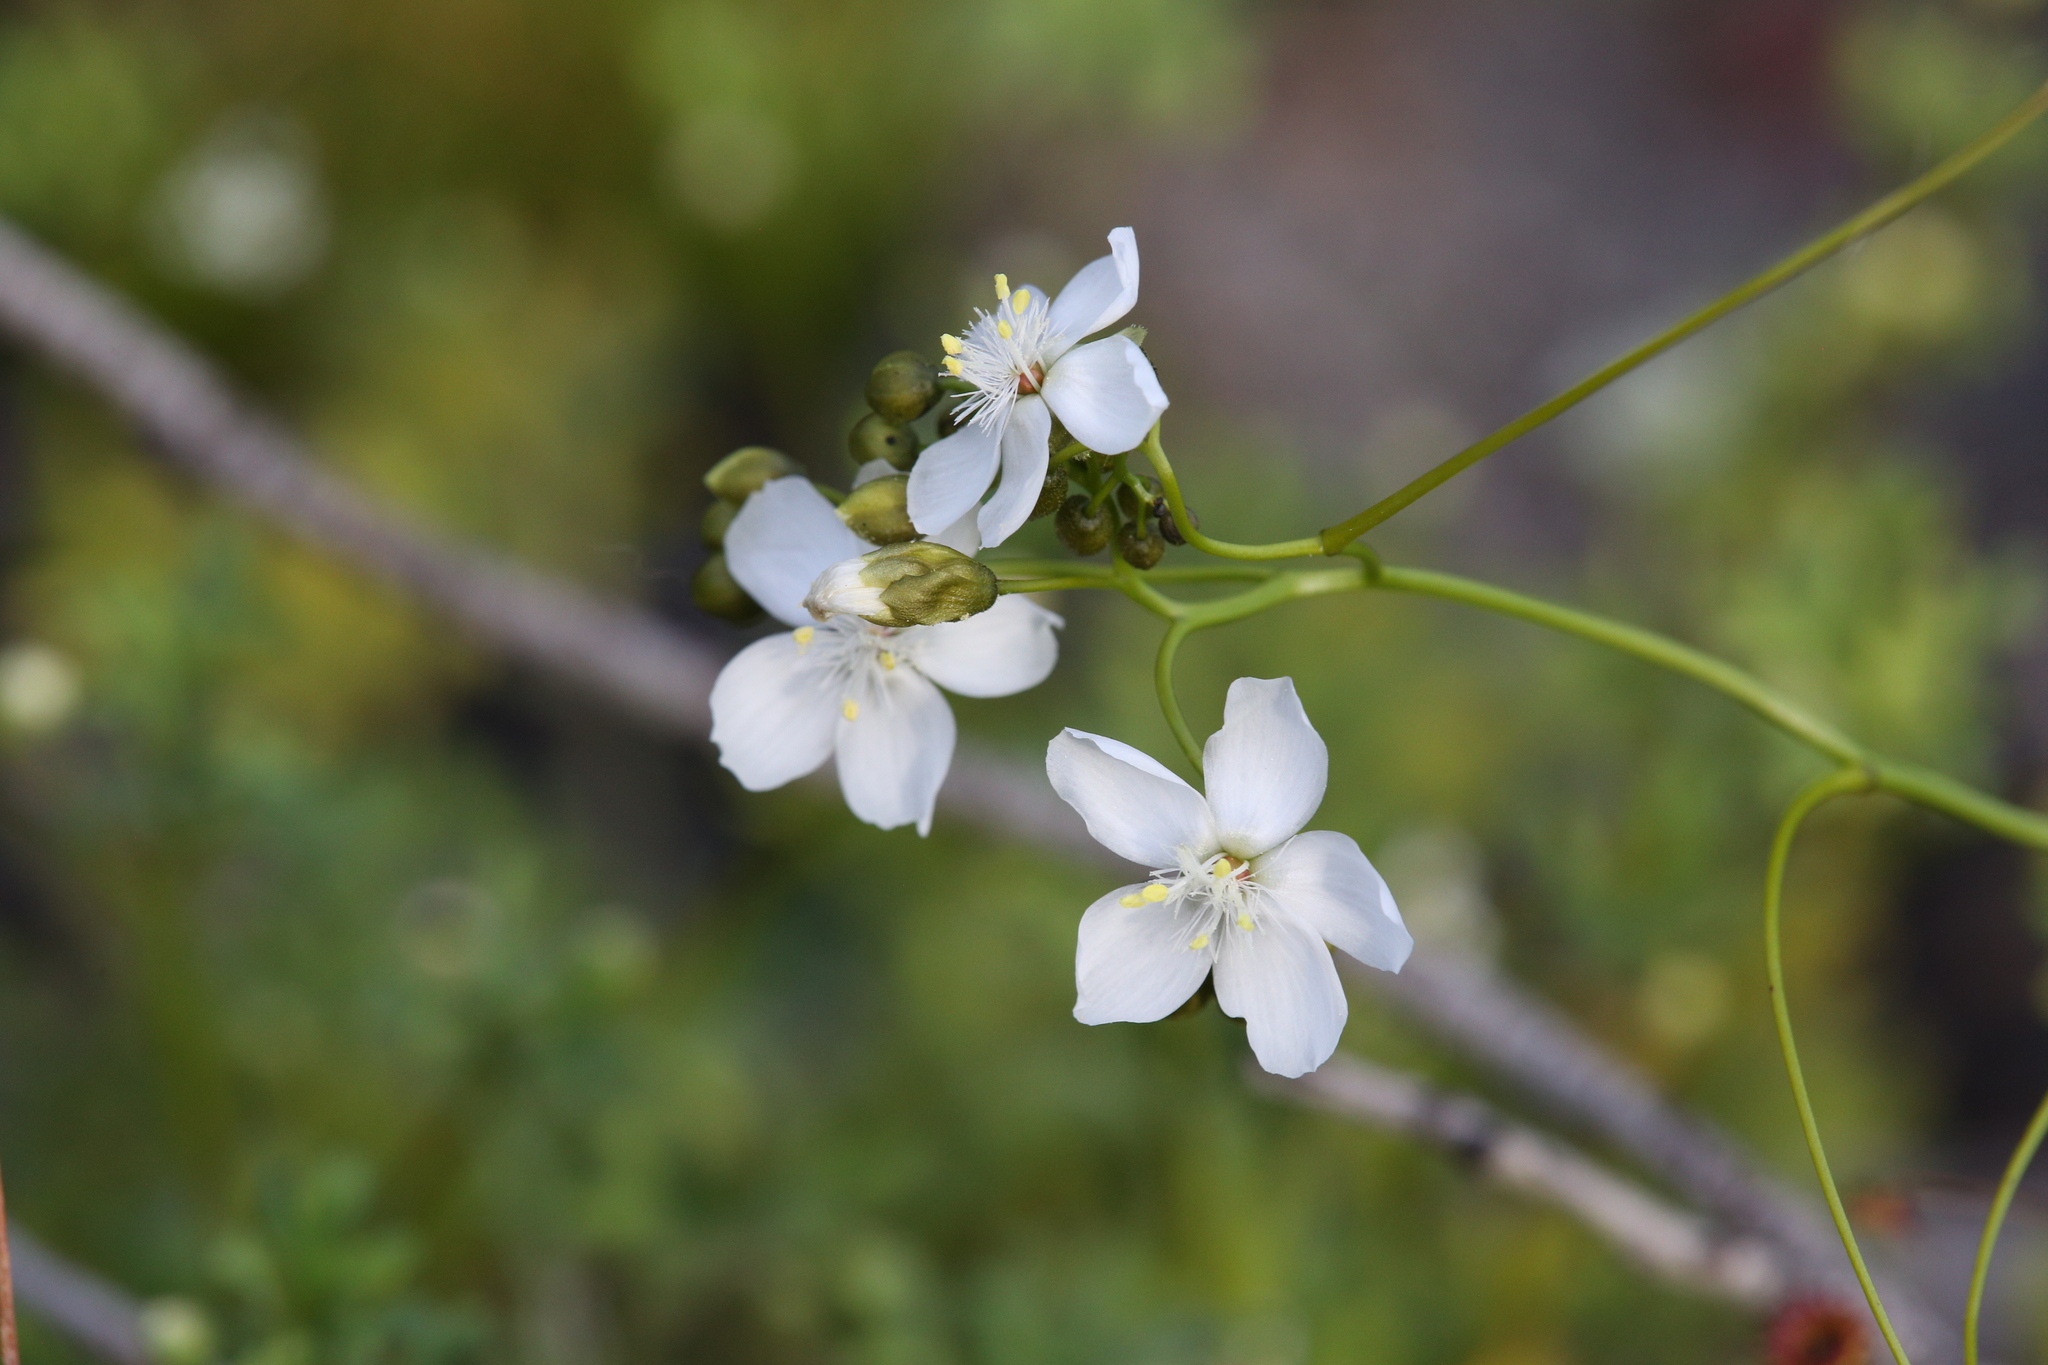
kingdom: Plantae
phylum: Tracheophyta
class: Magnoliopsida
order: Caryophyllales
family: Droseraceae
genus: Drosera
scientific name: Drosera pallida
